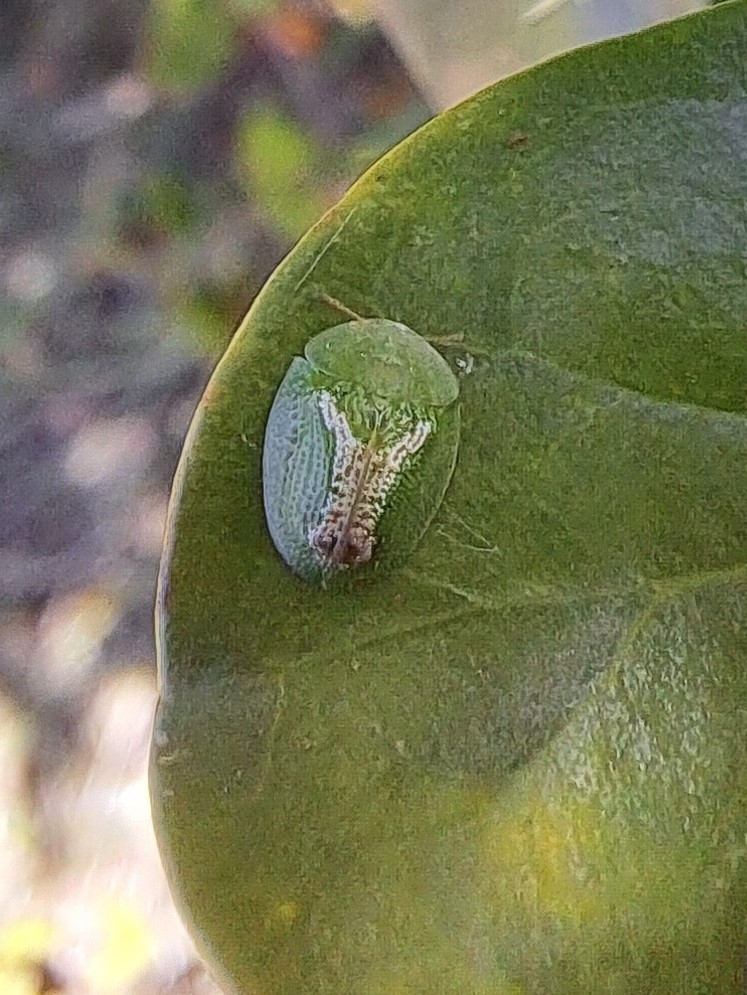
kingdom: Animalia
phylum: Arthropoda
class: Insecta
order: Coleoptera
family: Chrysomelidae
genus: Cassida
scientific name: Cassida dorsovittata
